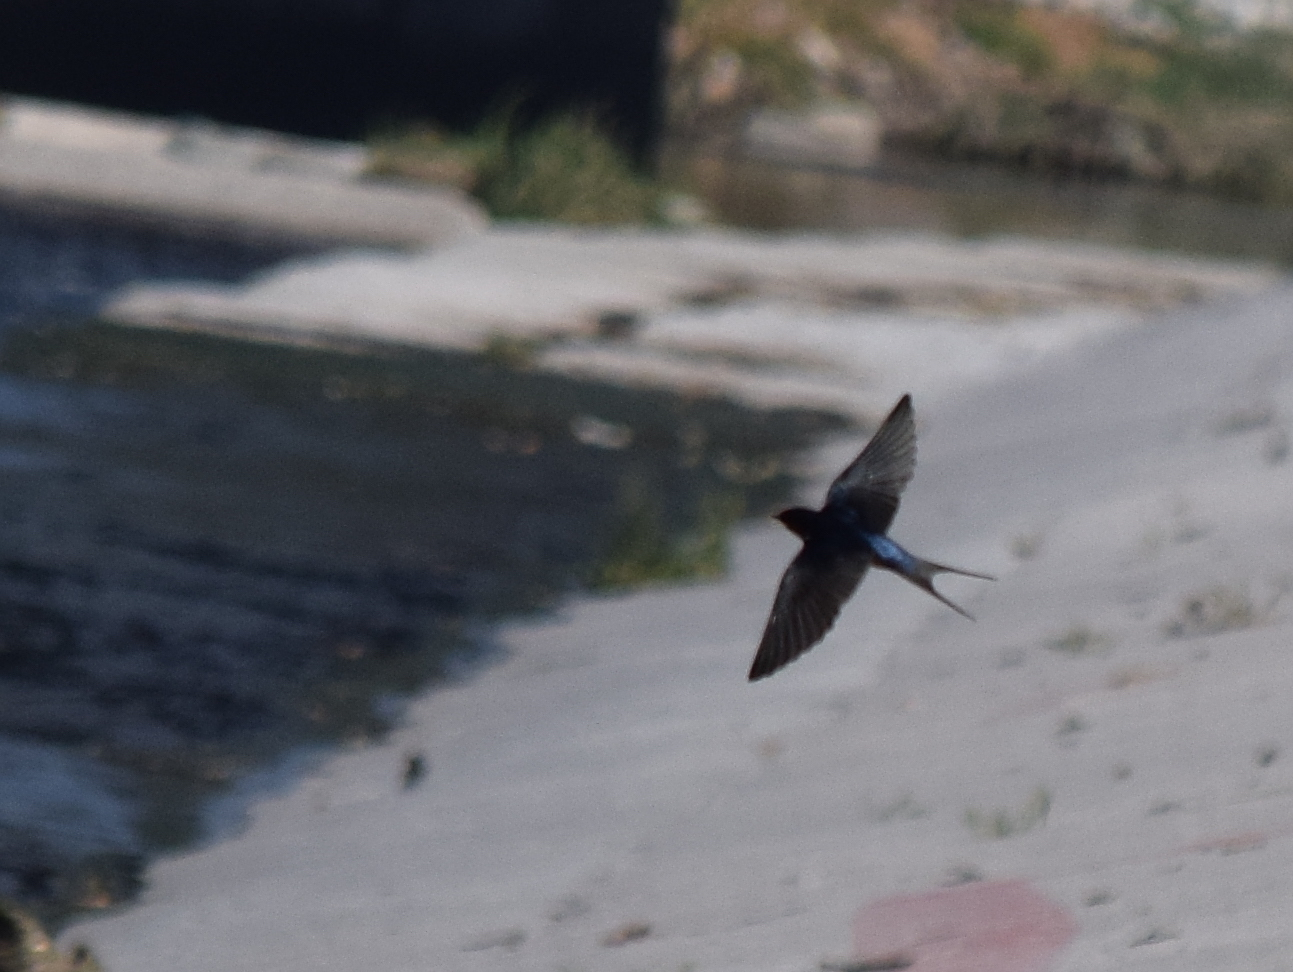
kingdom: Animalia
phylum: Chordata
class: Aves
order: Passeriformes
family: Hirundinidae
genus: Hirundo
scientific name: Hirundo rustica
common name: Barn swallow
